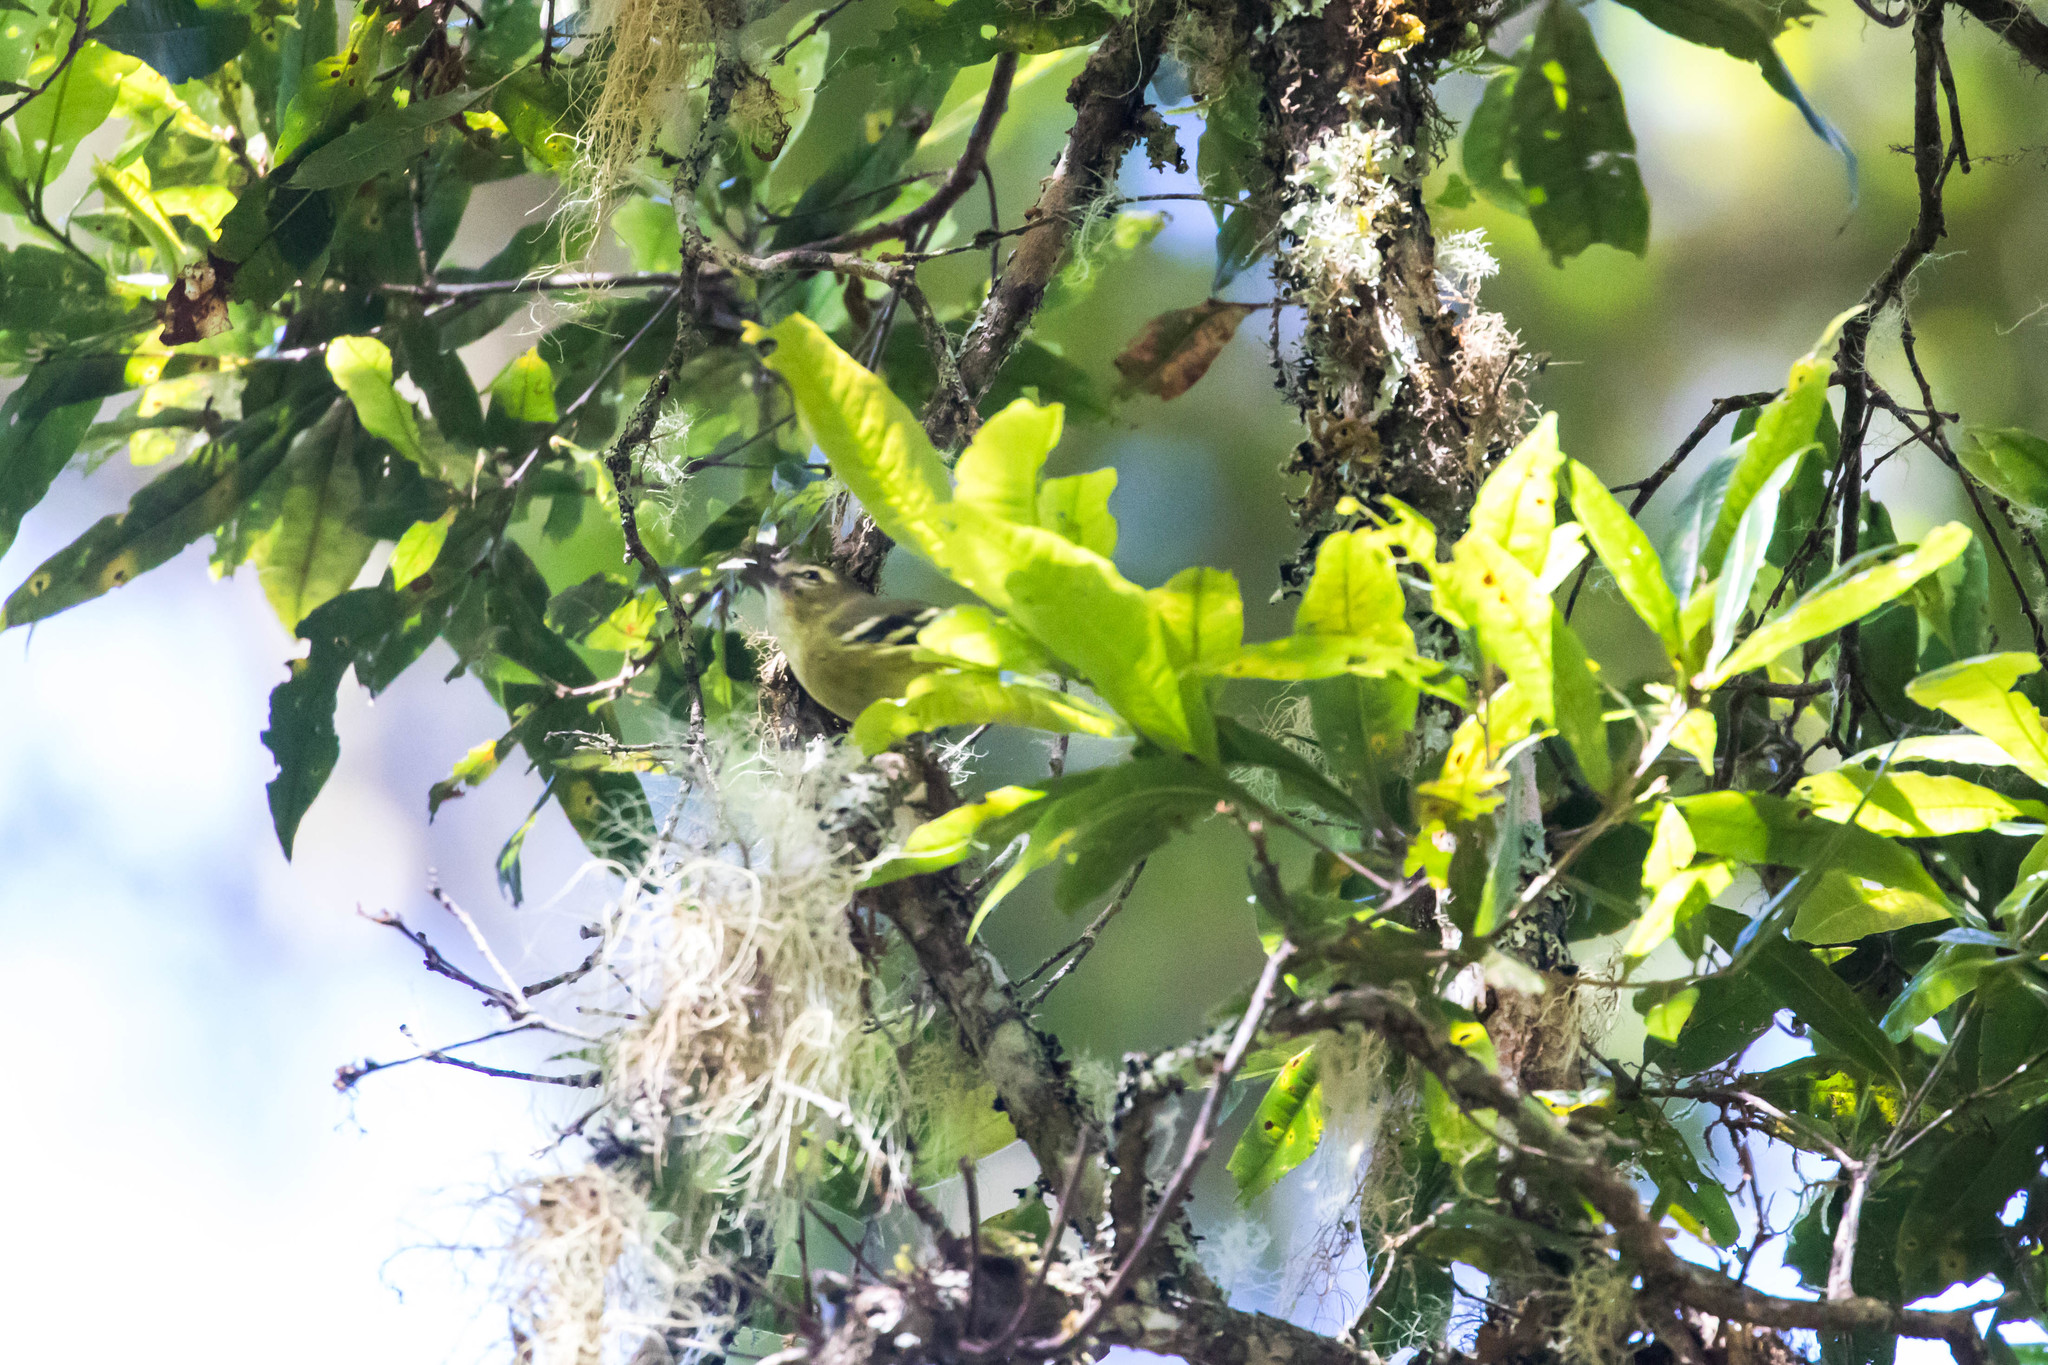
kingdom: Animalia
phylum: Chordata
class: Aves
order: Passeriformes
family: Vireonidae
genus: Vireo
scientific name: Vireo carmioli
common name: Yellow-winged vireo
